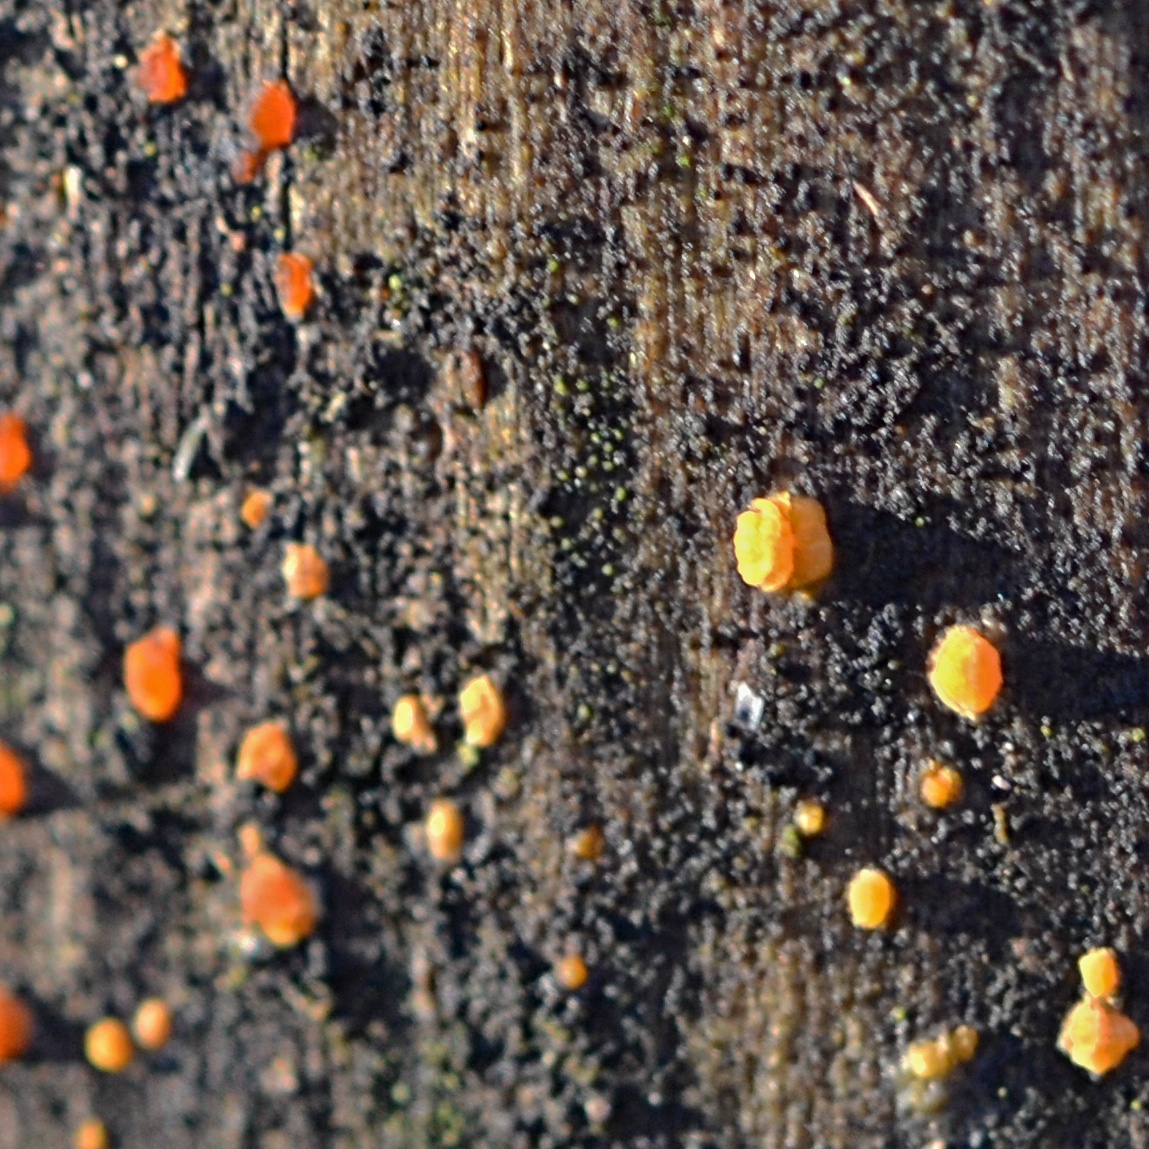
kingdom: Fungi
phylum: Basidiomycota
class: Dacrymycetes
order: Dacrymycetales
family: Dacrymycetaceae
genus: Dacrymyces
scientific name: Dacrymyces stillatus
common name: Common jelly spot
